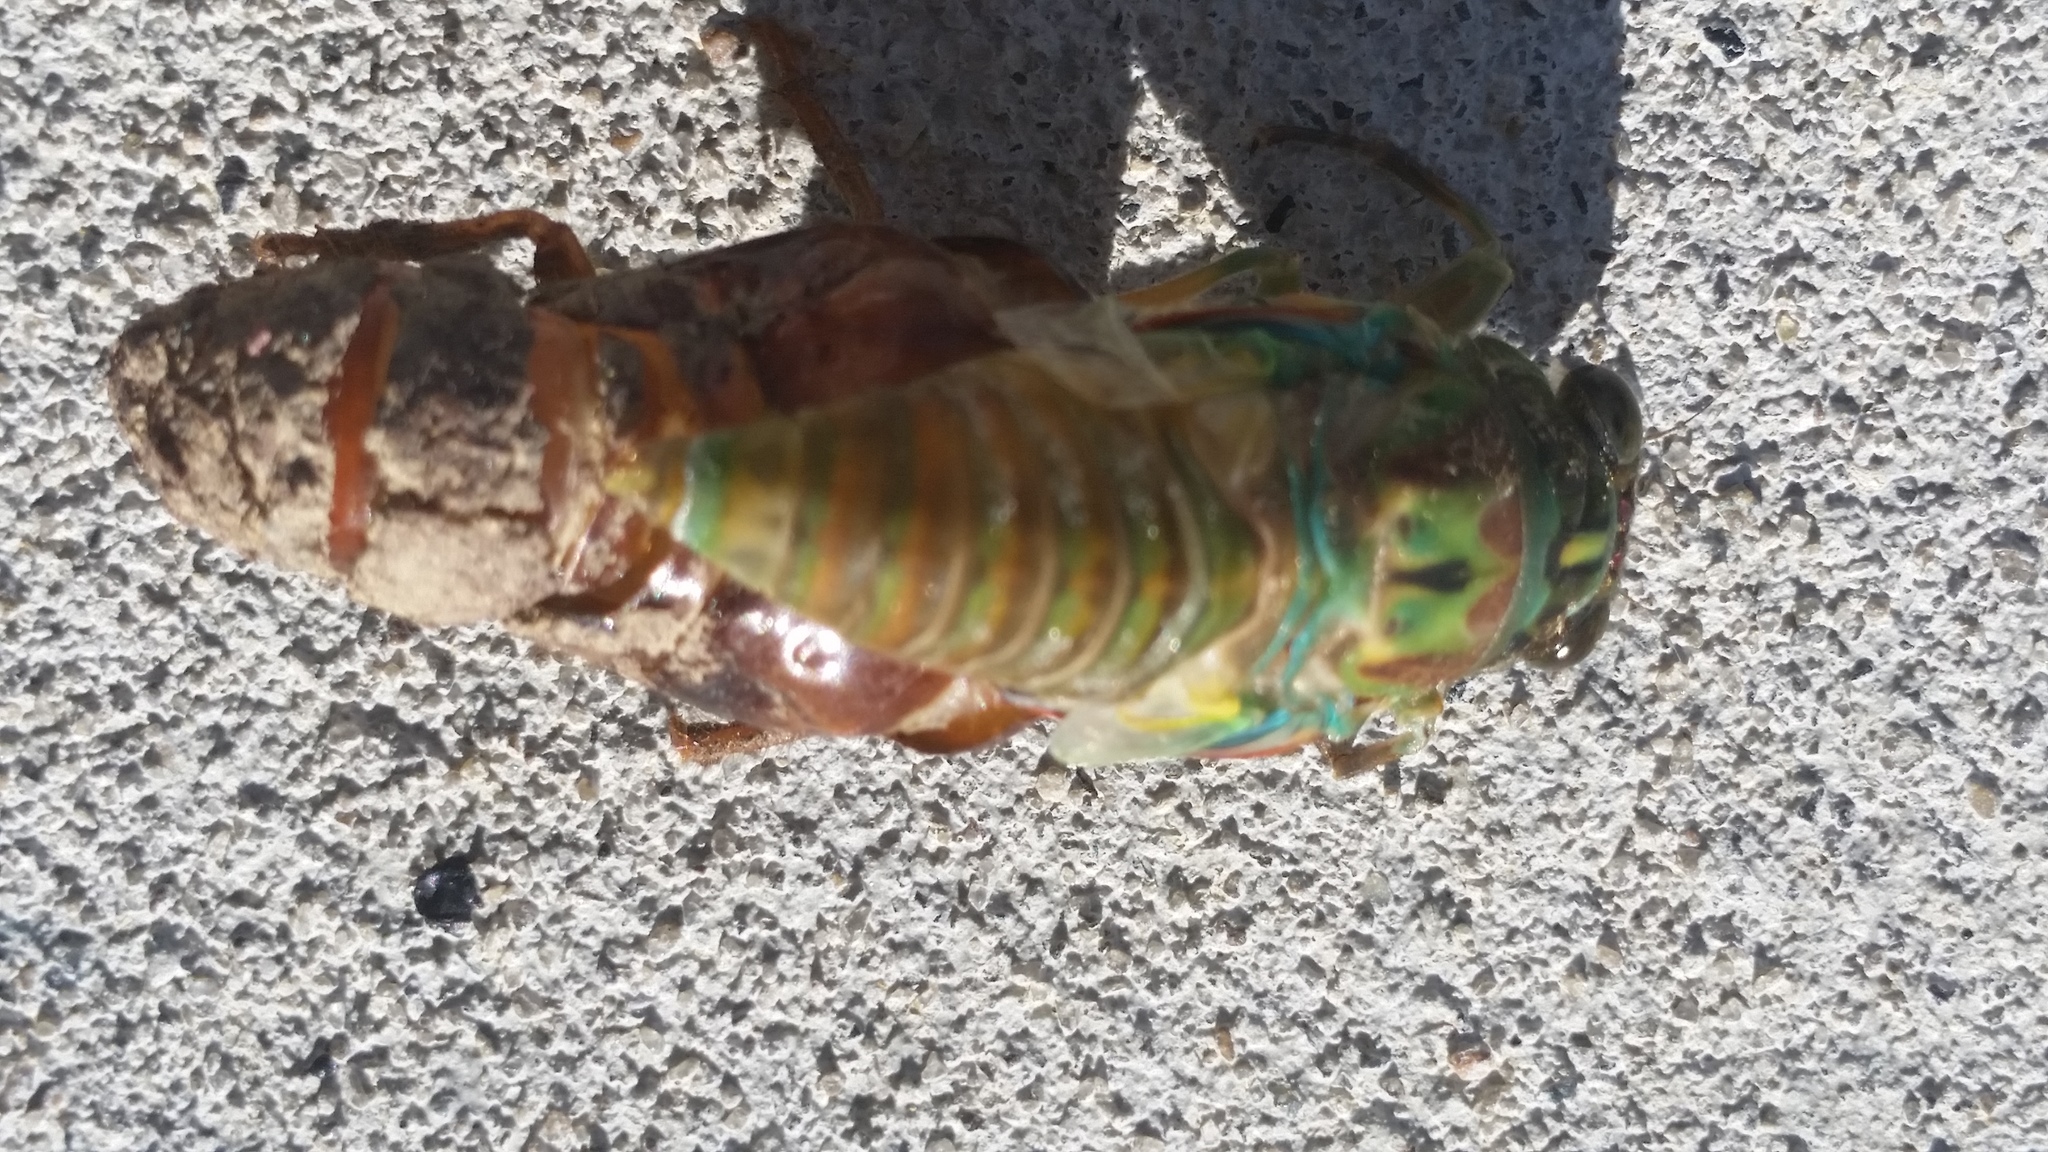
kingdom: Animalia
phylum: Arthropoda
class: Insecta
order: Hemiptera
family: Cicadidae
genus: Amphipsalta
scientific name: Amphipsalta zelandica
